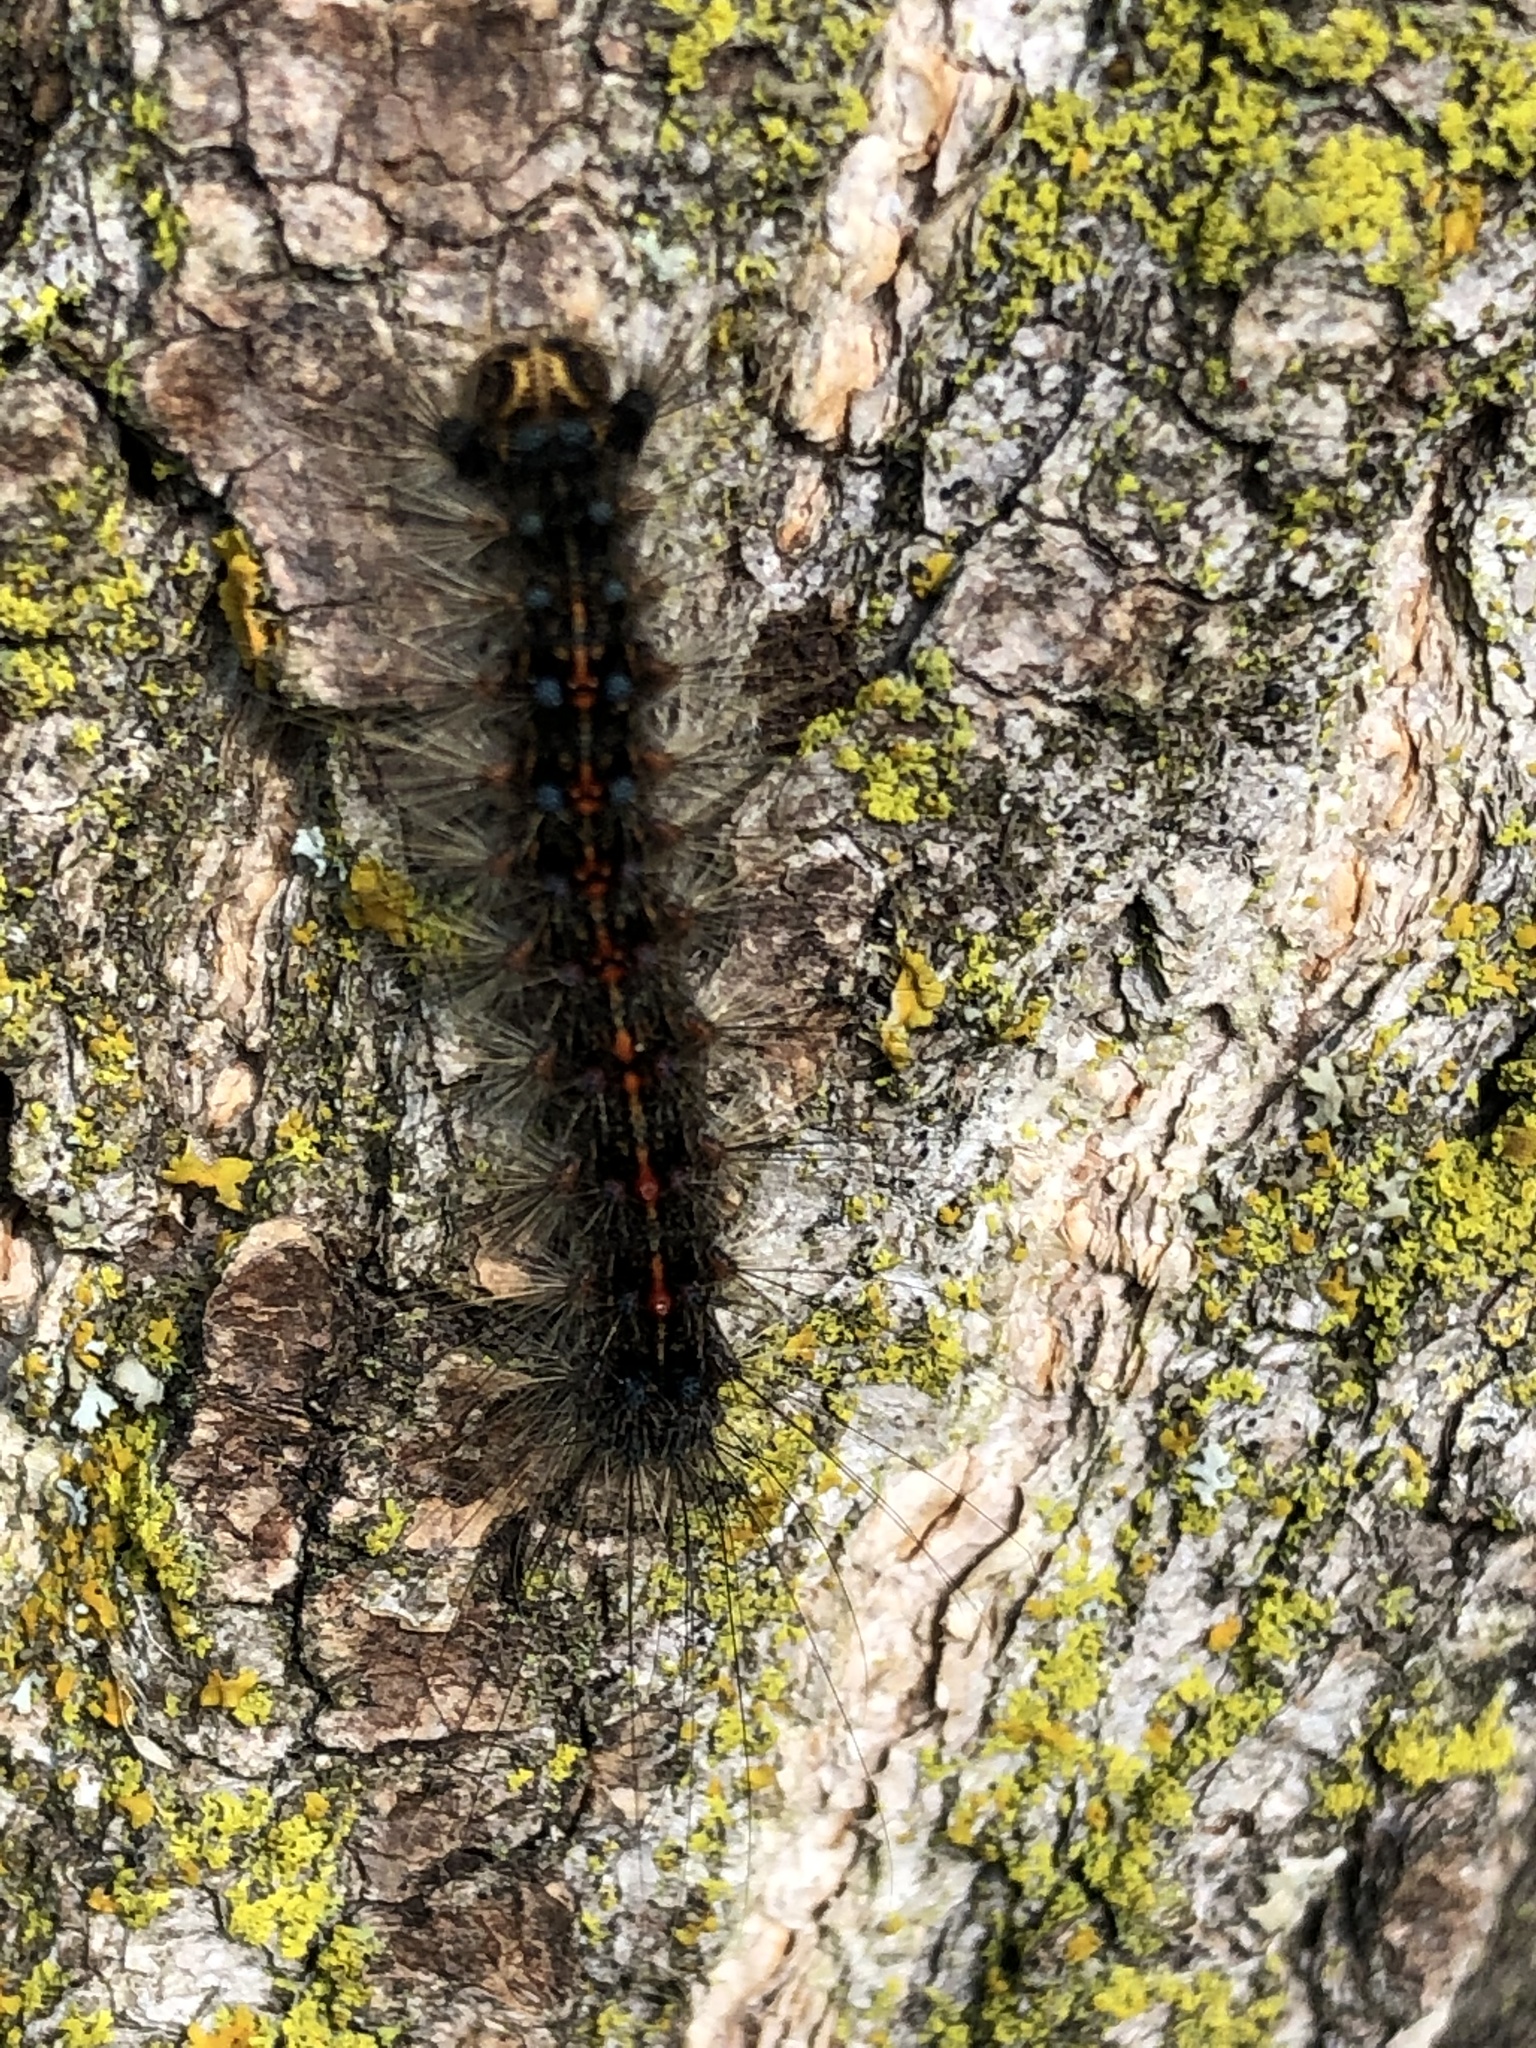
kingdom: Animalia
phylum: Arthropoda
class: Insecta
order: Lepidoptera
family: Erebidae
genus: Lymantria
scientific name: Lymantria dispar
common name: Gypsy moth
